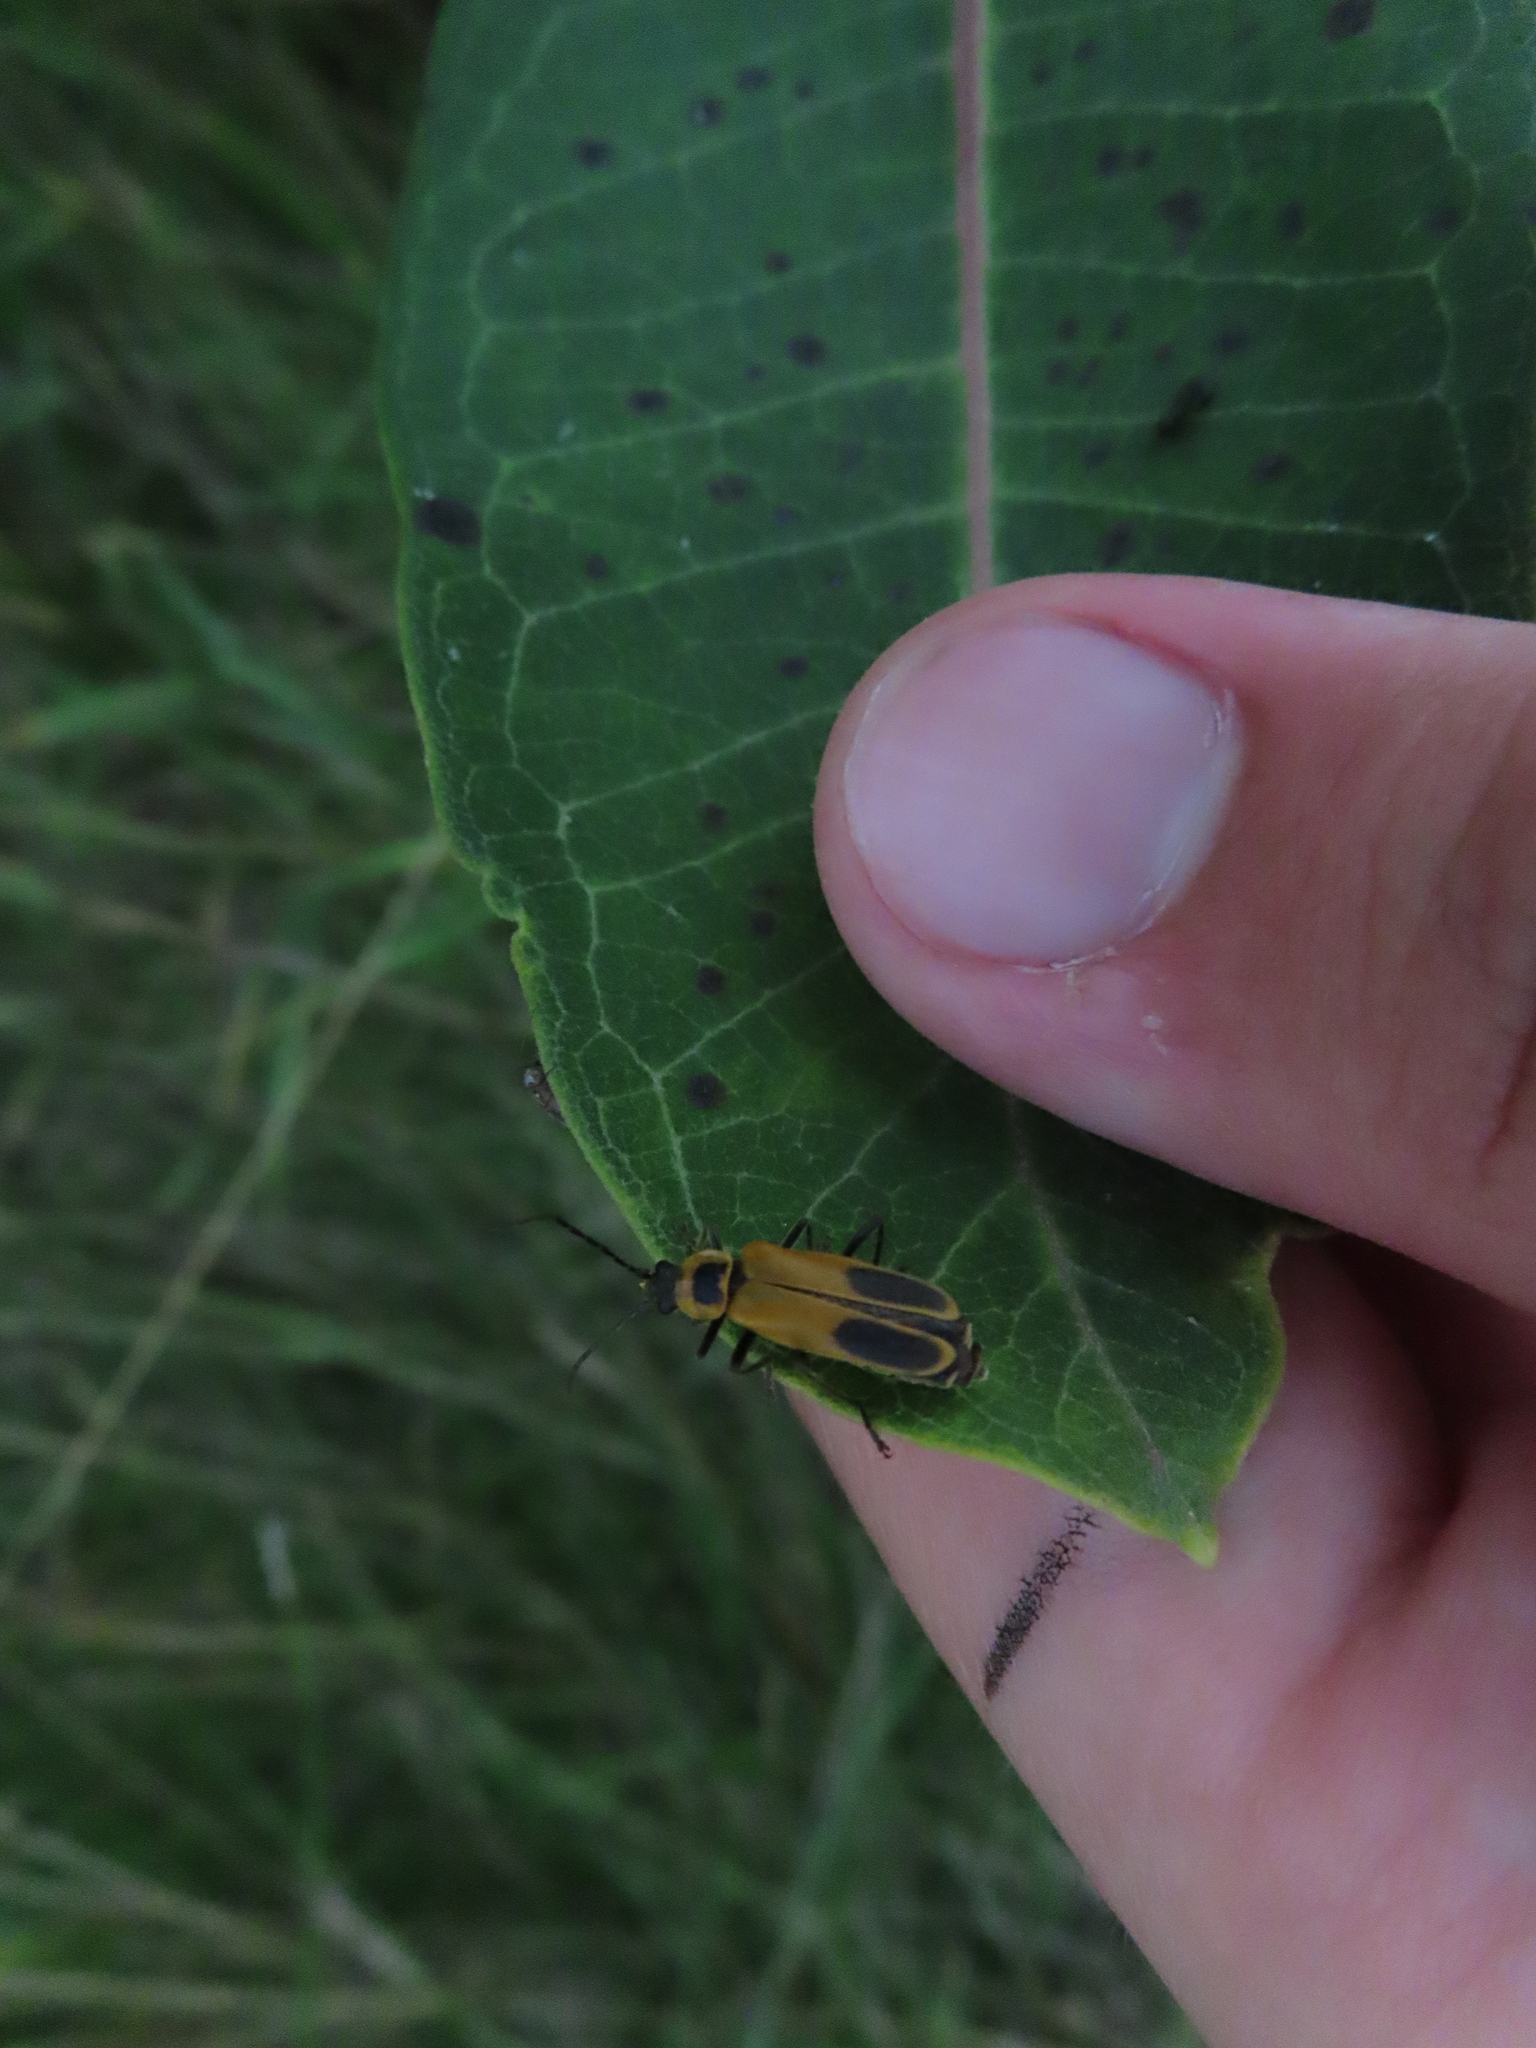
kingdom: Animalia
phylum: Arthropoda
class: Insecta
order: Coleoptera
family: Cantharidae
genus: Chauliognathus
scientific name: Chauliognathus pensylvanicus
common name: Goldenrod soldier beetle
